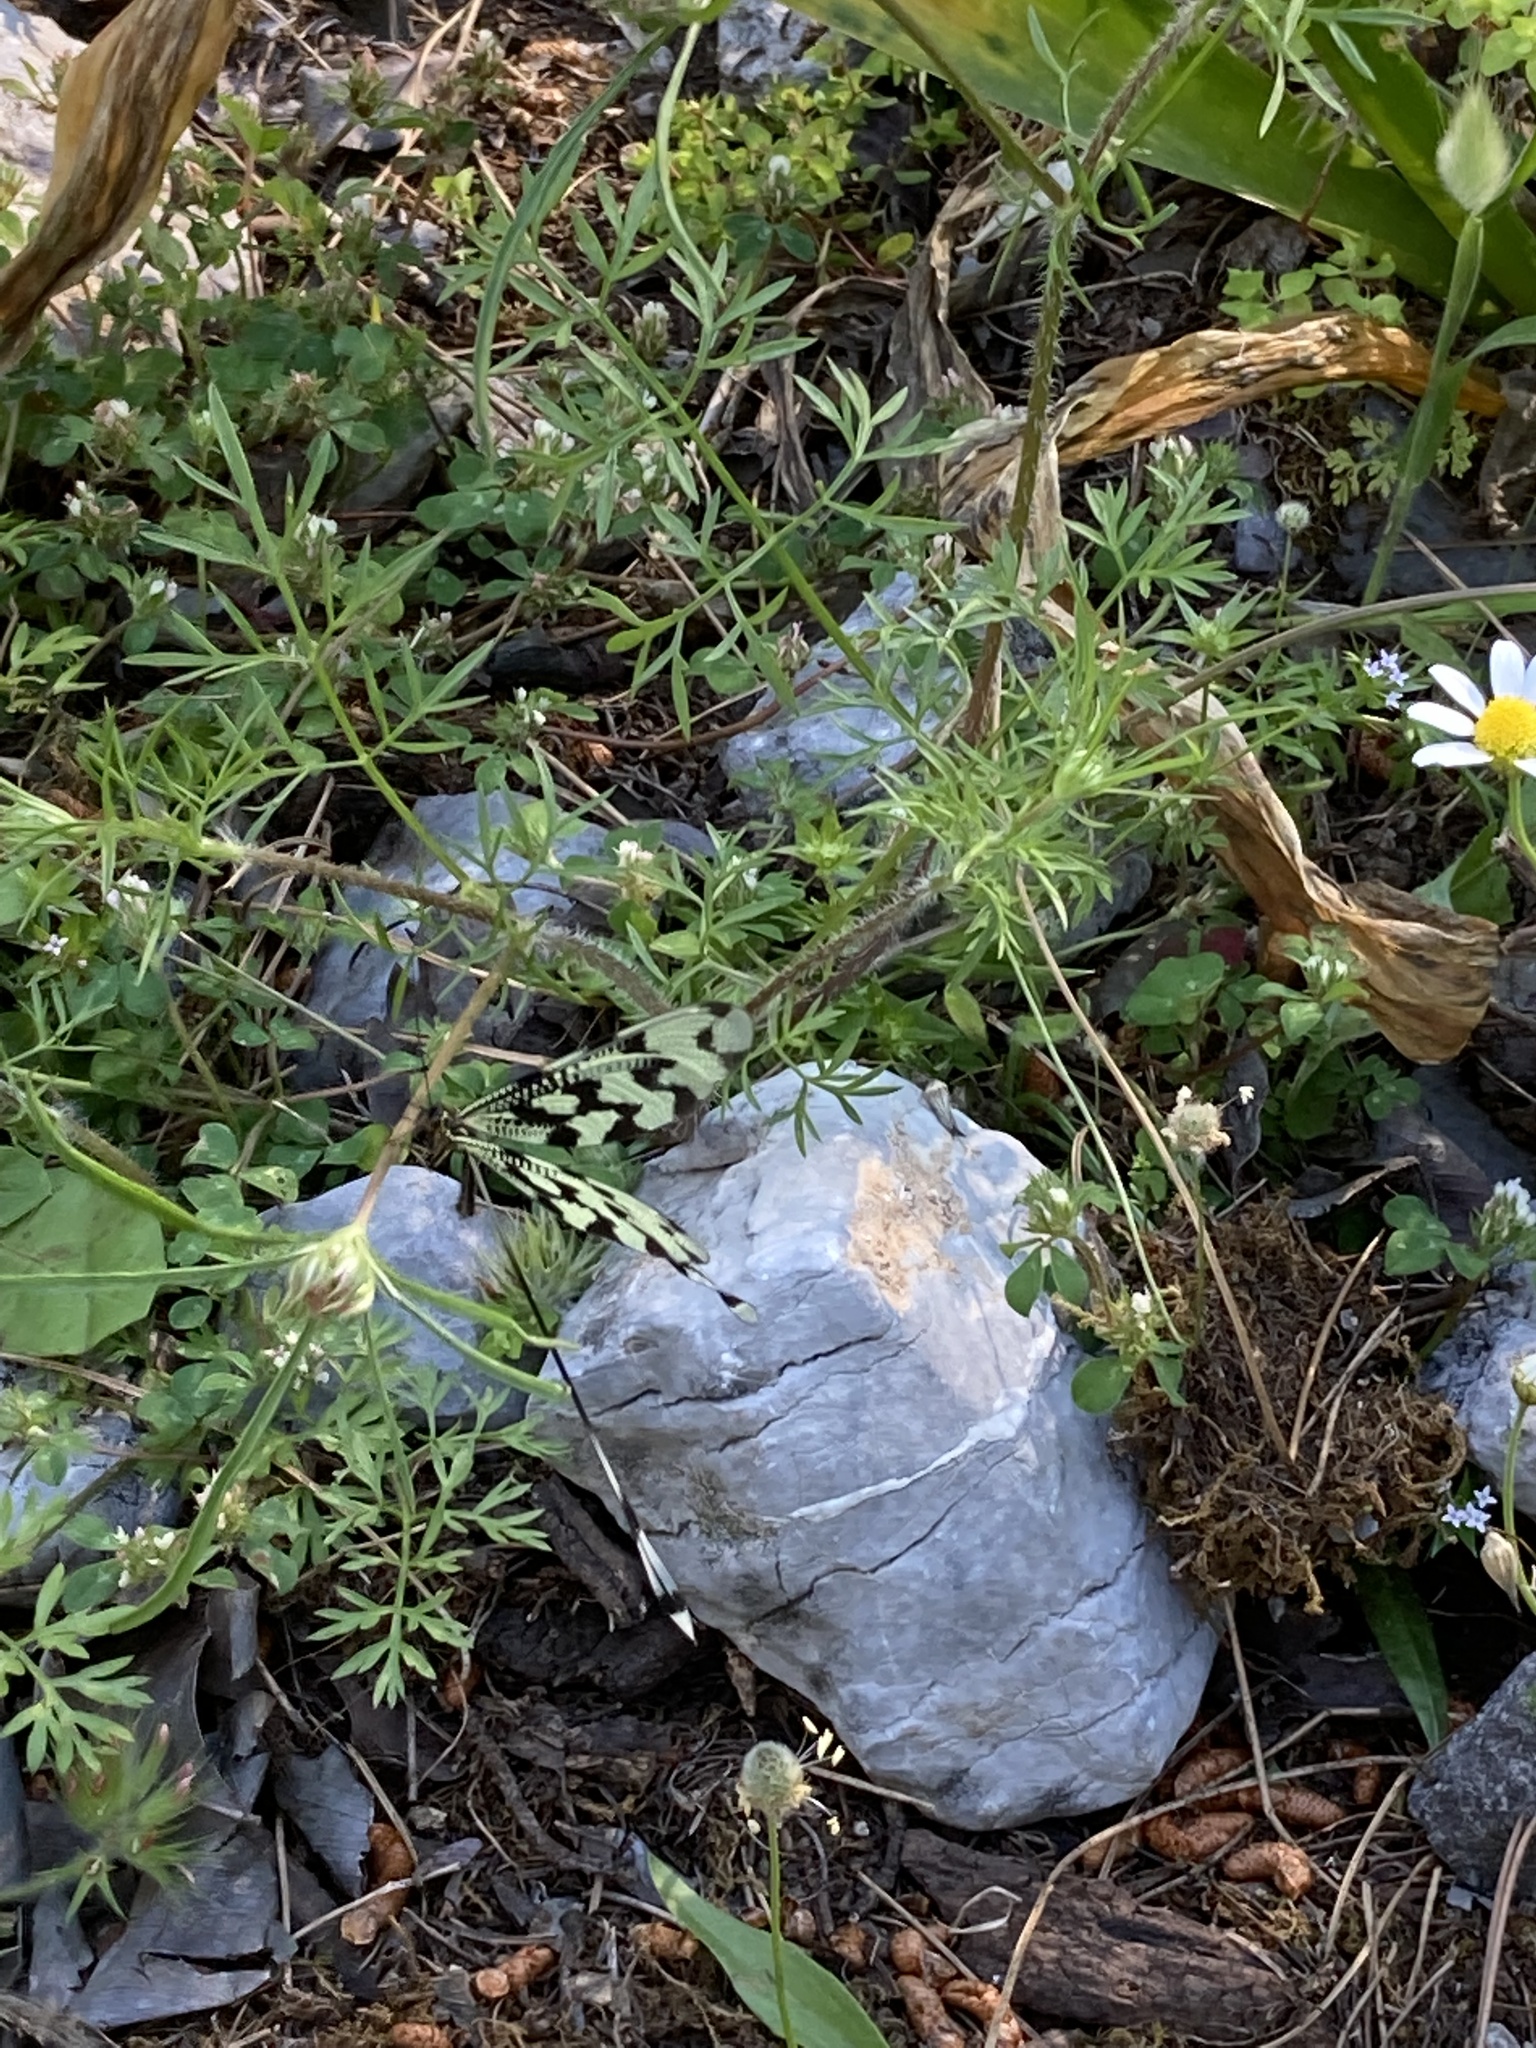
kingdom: Animalia
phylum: Arthropoda
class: Insecta
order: Neuroptera
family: Nemopteridae
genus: Nemoptera
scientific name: Nemoptera sinuata
